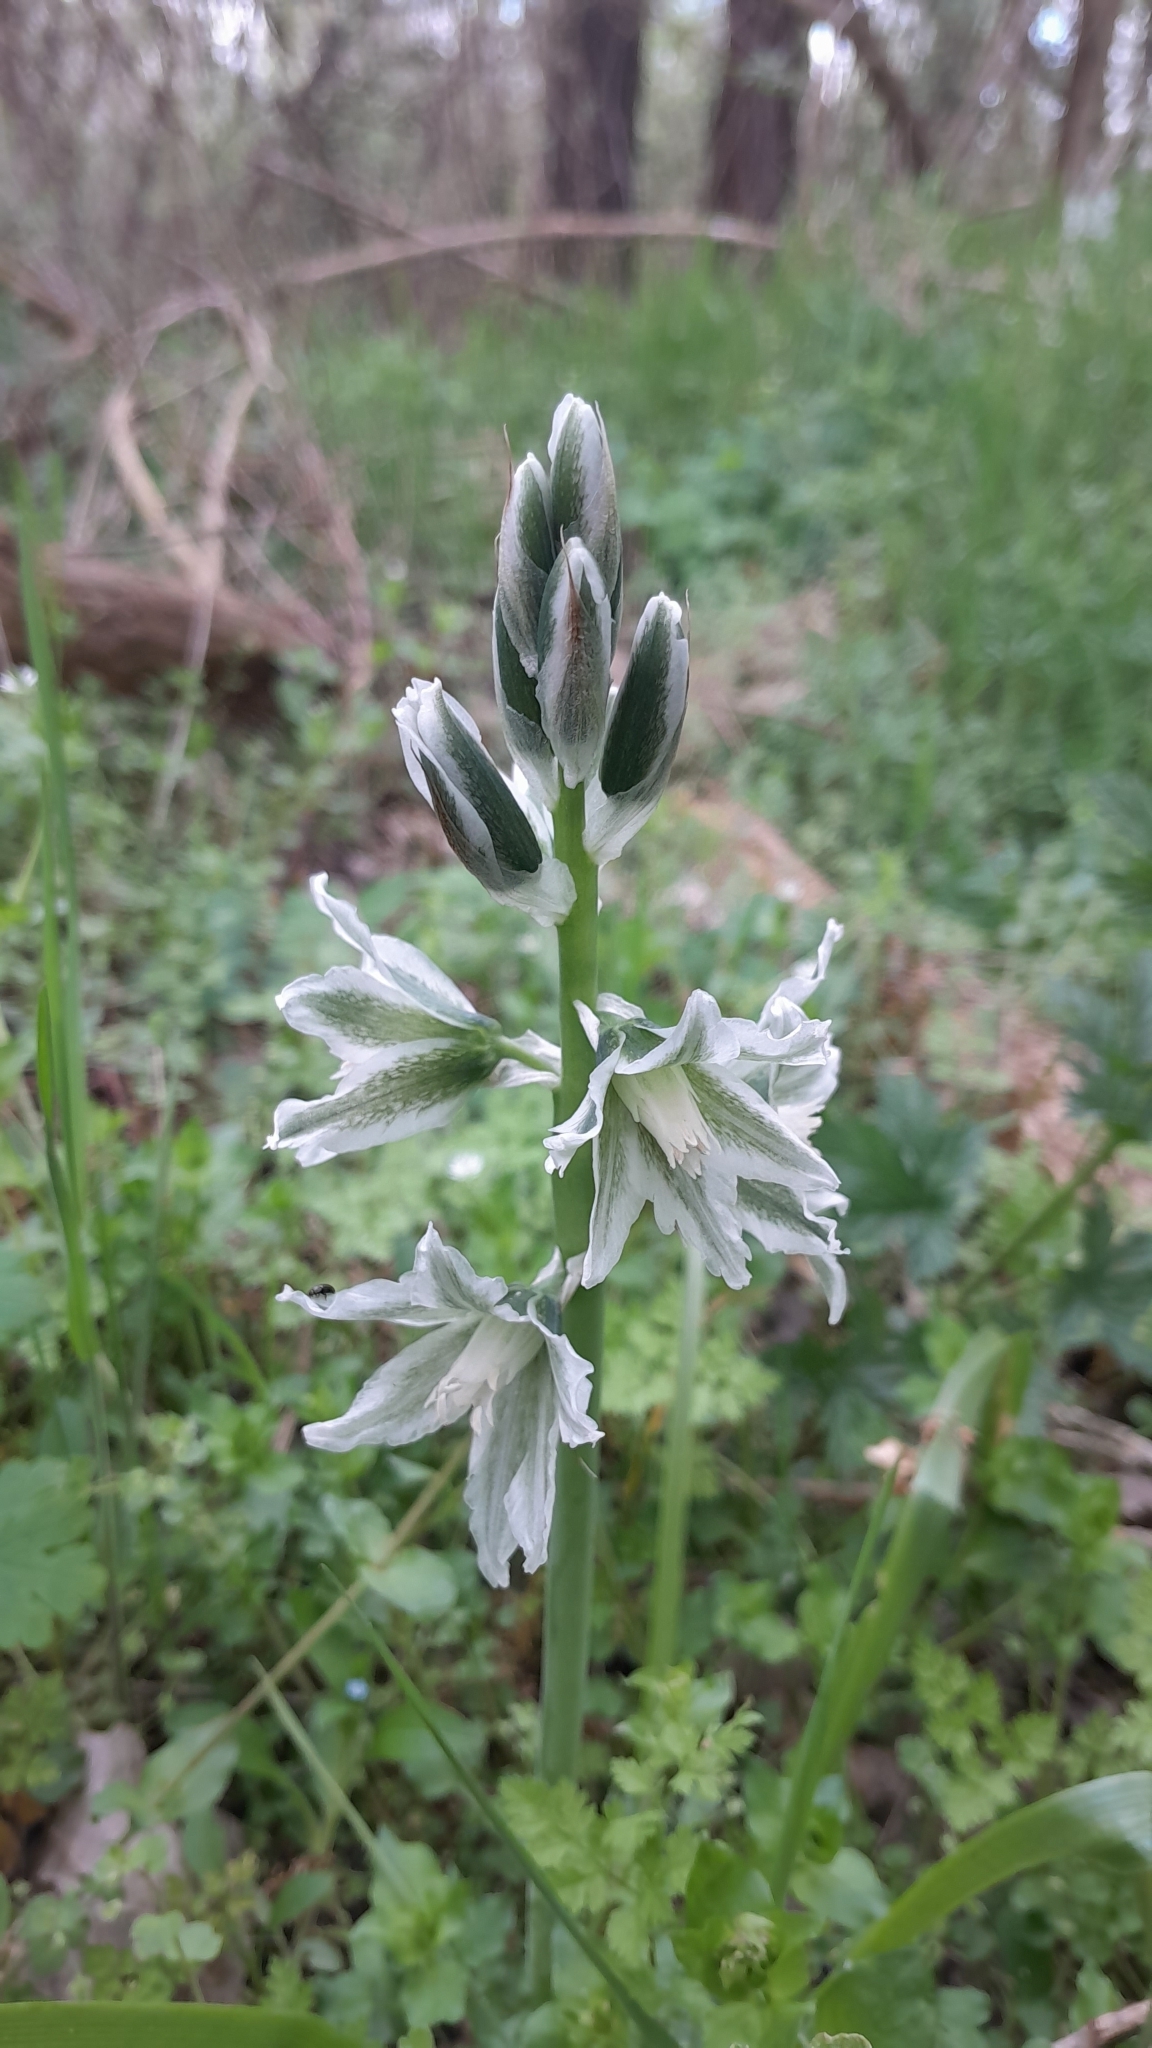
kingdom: Plantae
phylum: Tracheophyta
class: Liliopsida
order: Asparagales
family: Asparagaceae
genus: Ornithogalum
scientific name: Ornithogalum boucheanum
